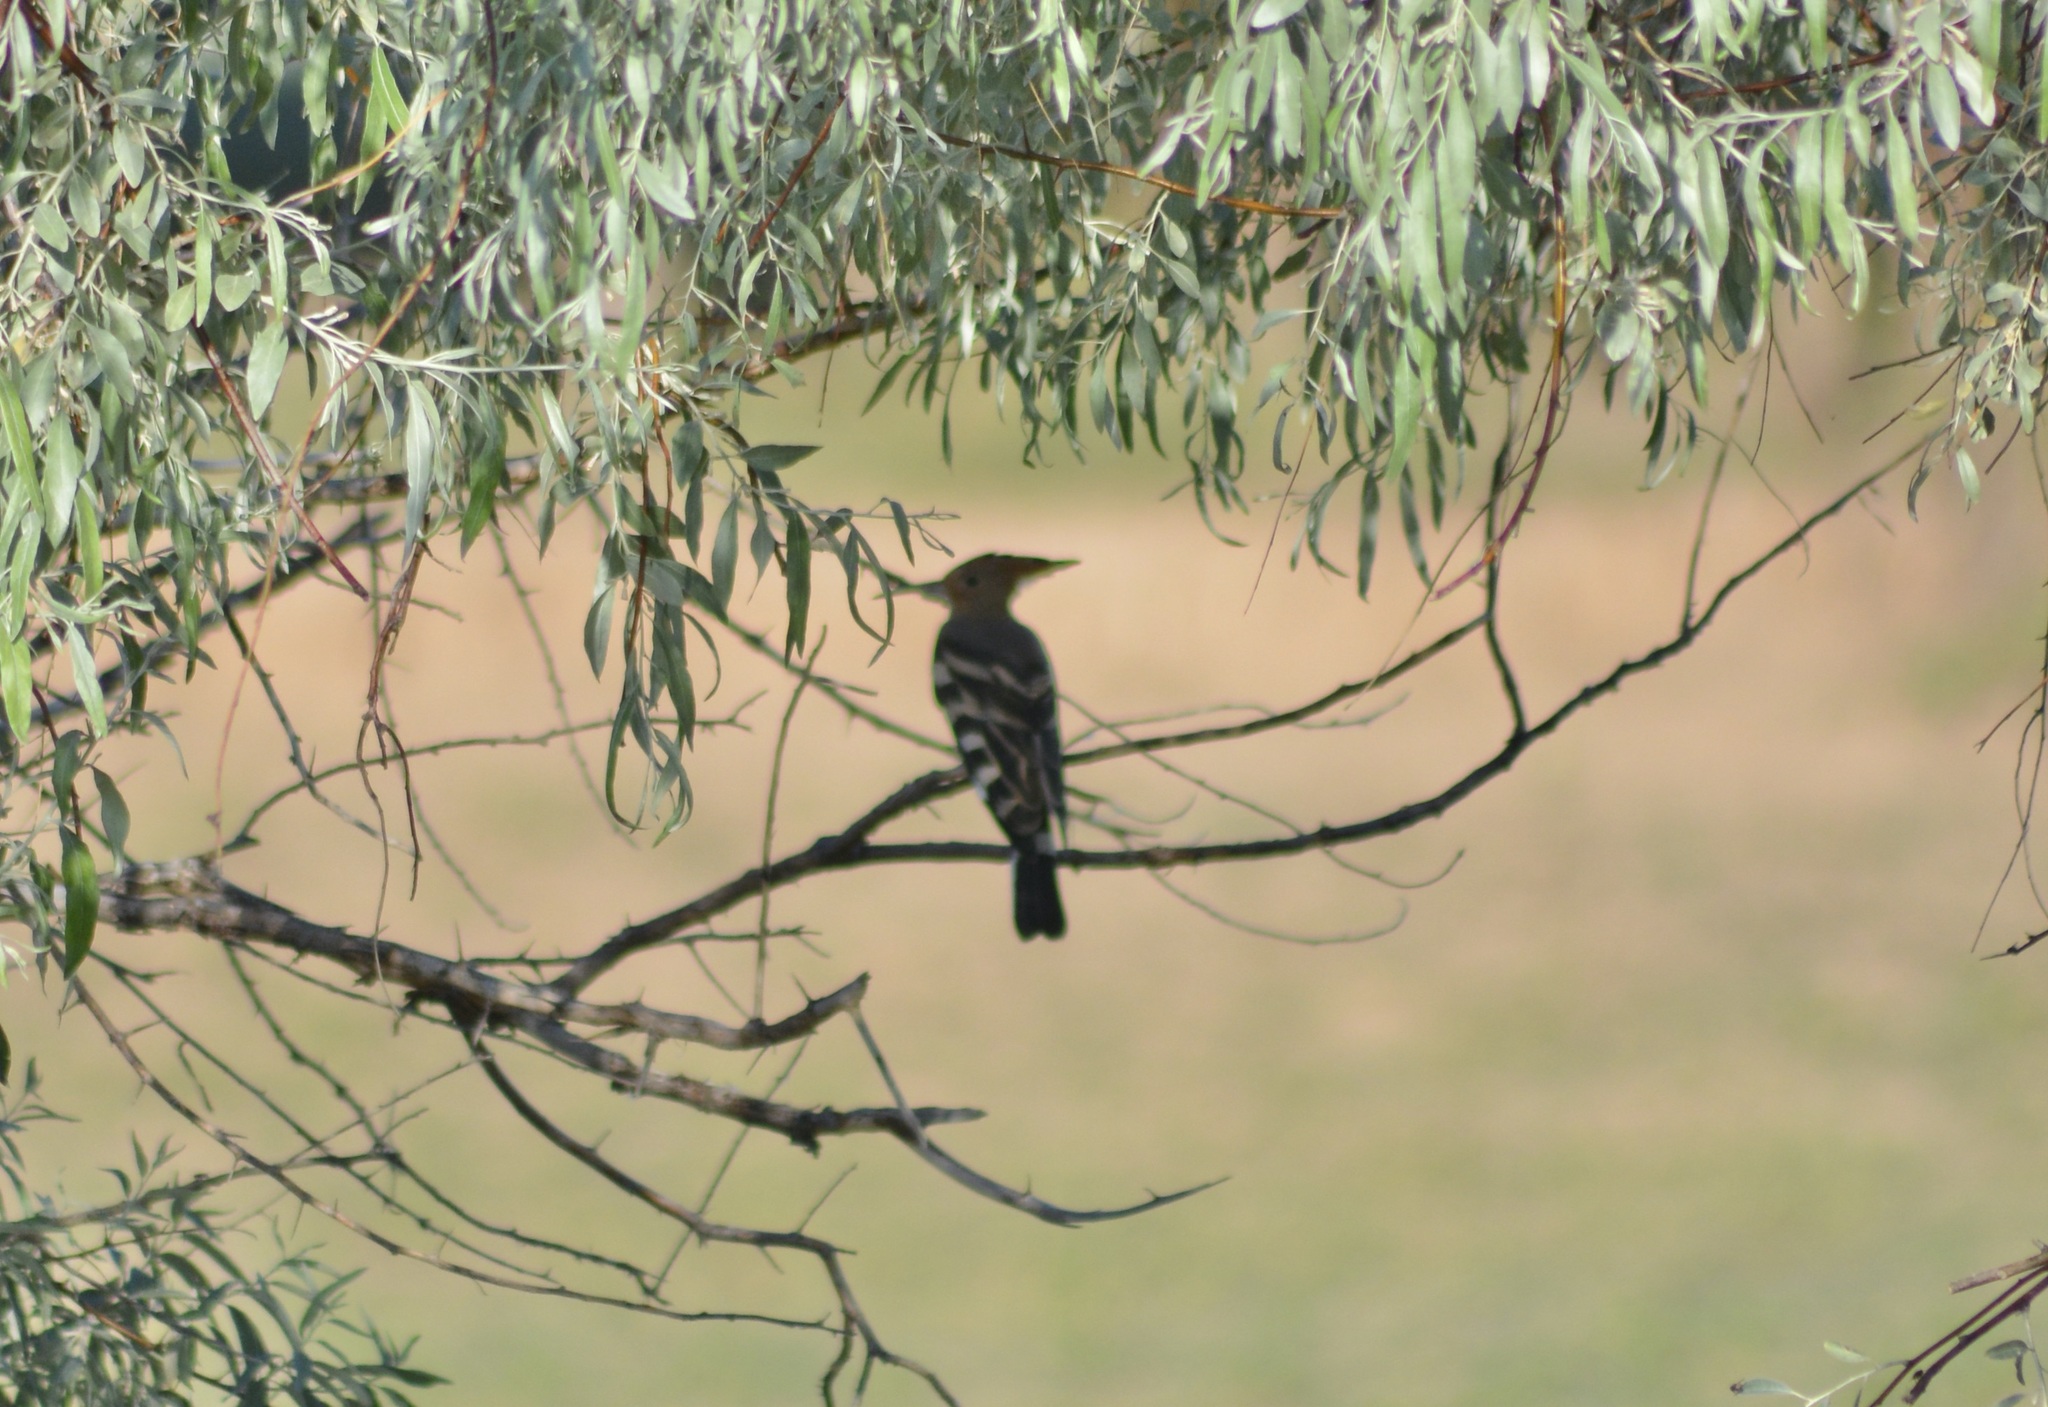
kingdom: Animalia
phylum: Chordata
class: Aves
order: Bucerotiformes
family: Upupidae
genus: Upupa
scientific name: Upupa epops
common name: Eurasian hoopoe
